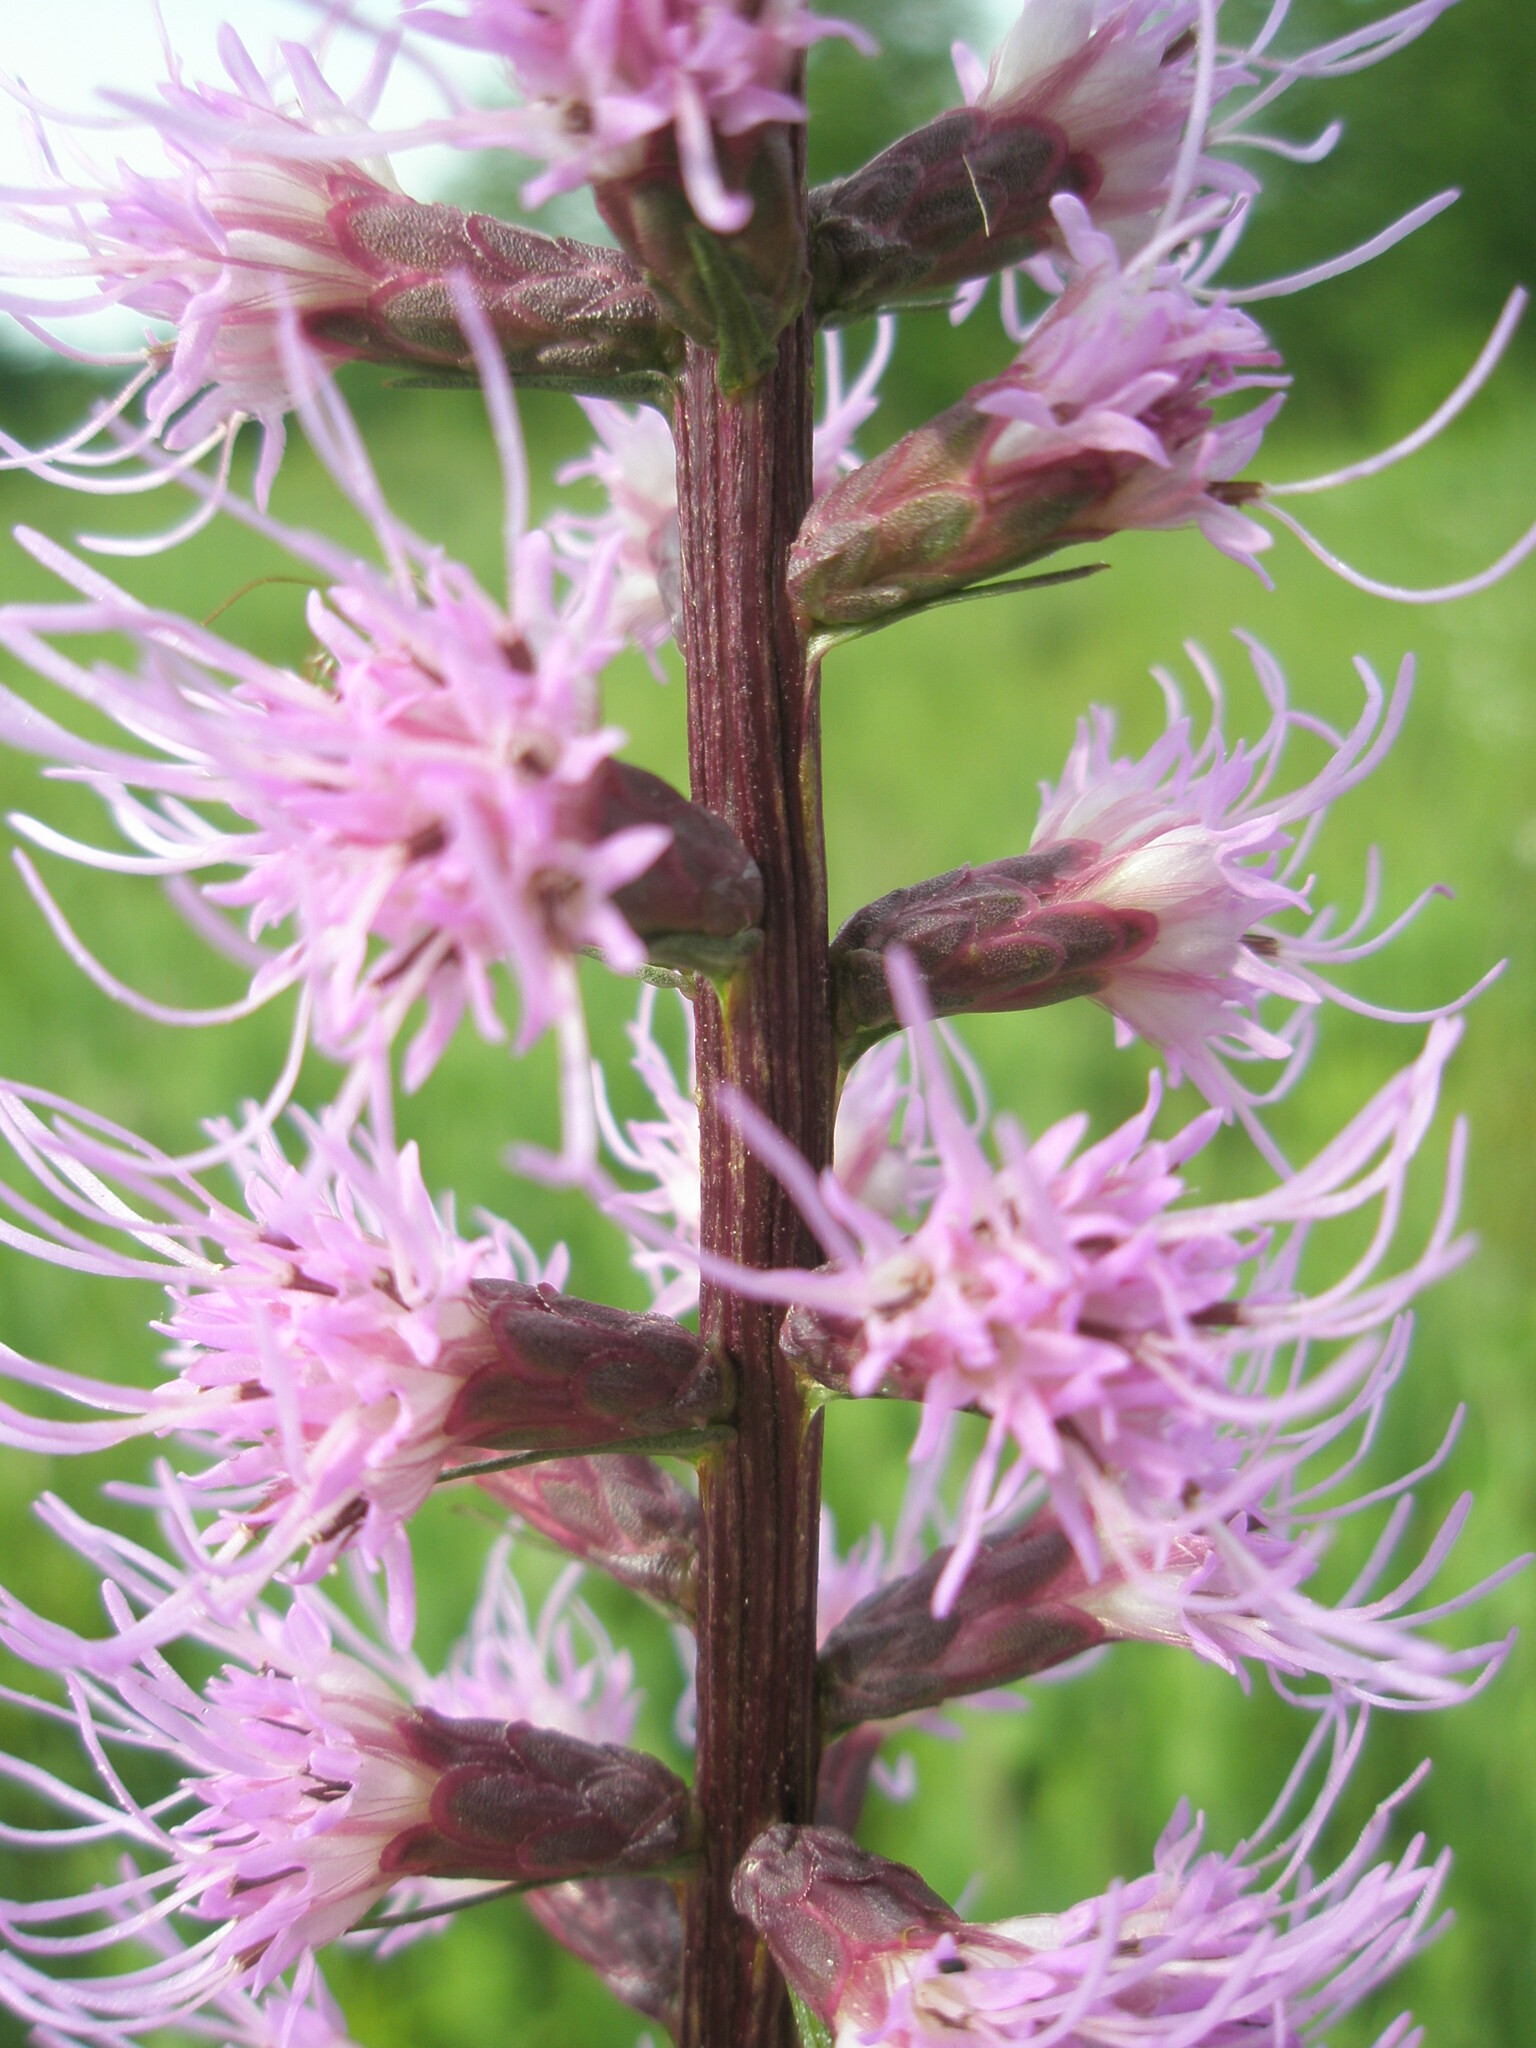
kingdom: Plantae
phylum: Tracheophyta
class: Magnoliopsida
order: Asterales
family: Asteraceae
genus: Liatris
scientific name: Liatris spicata
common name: Florist gayfeather
